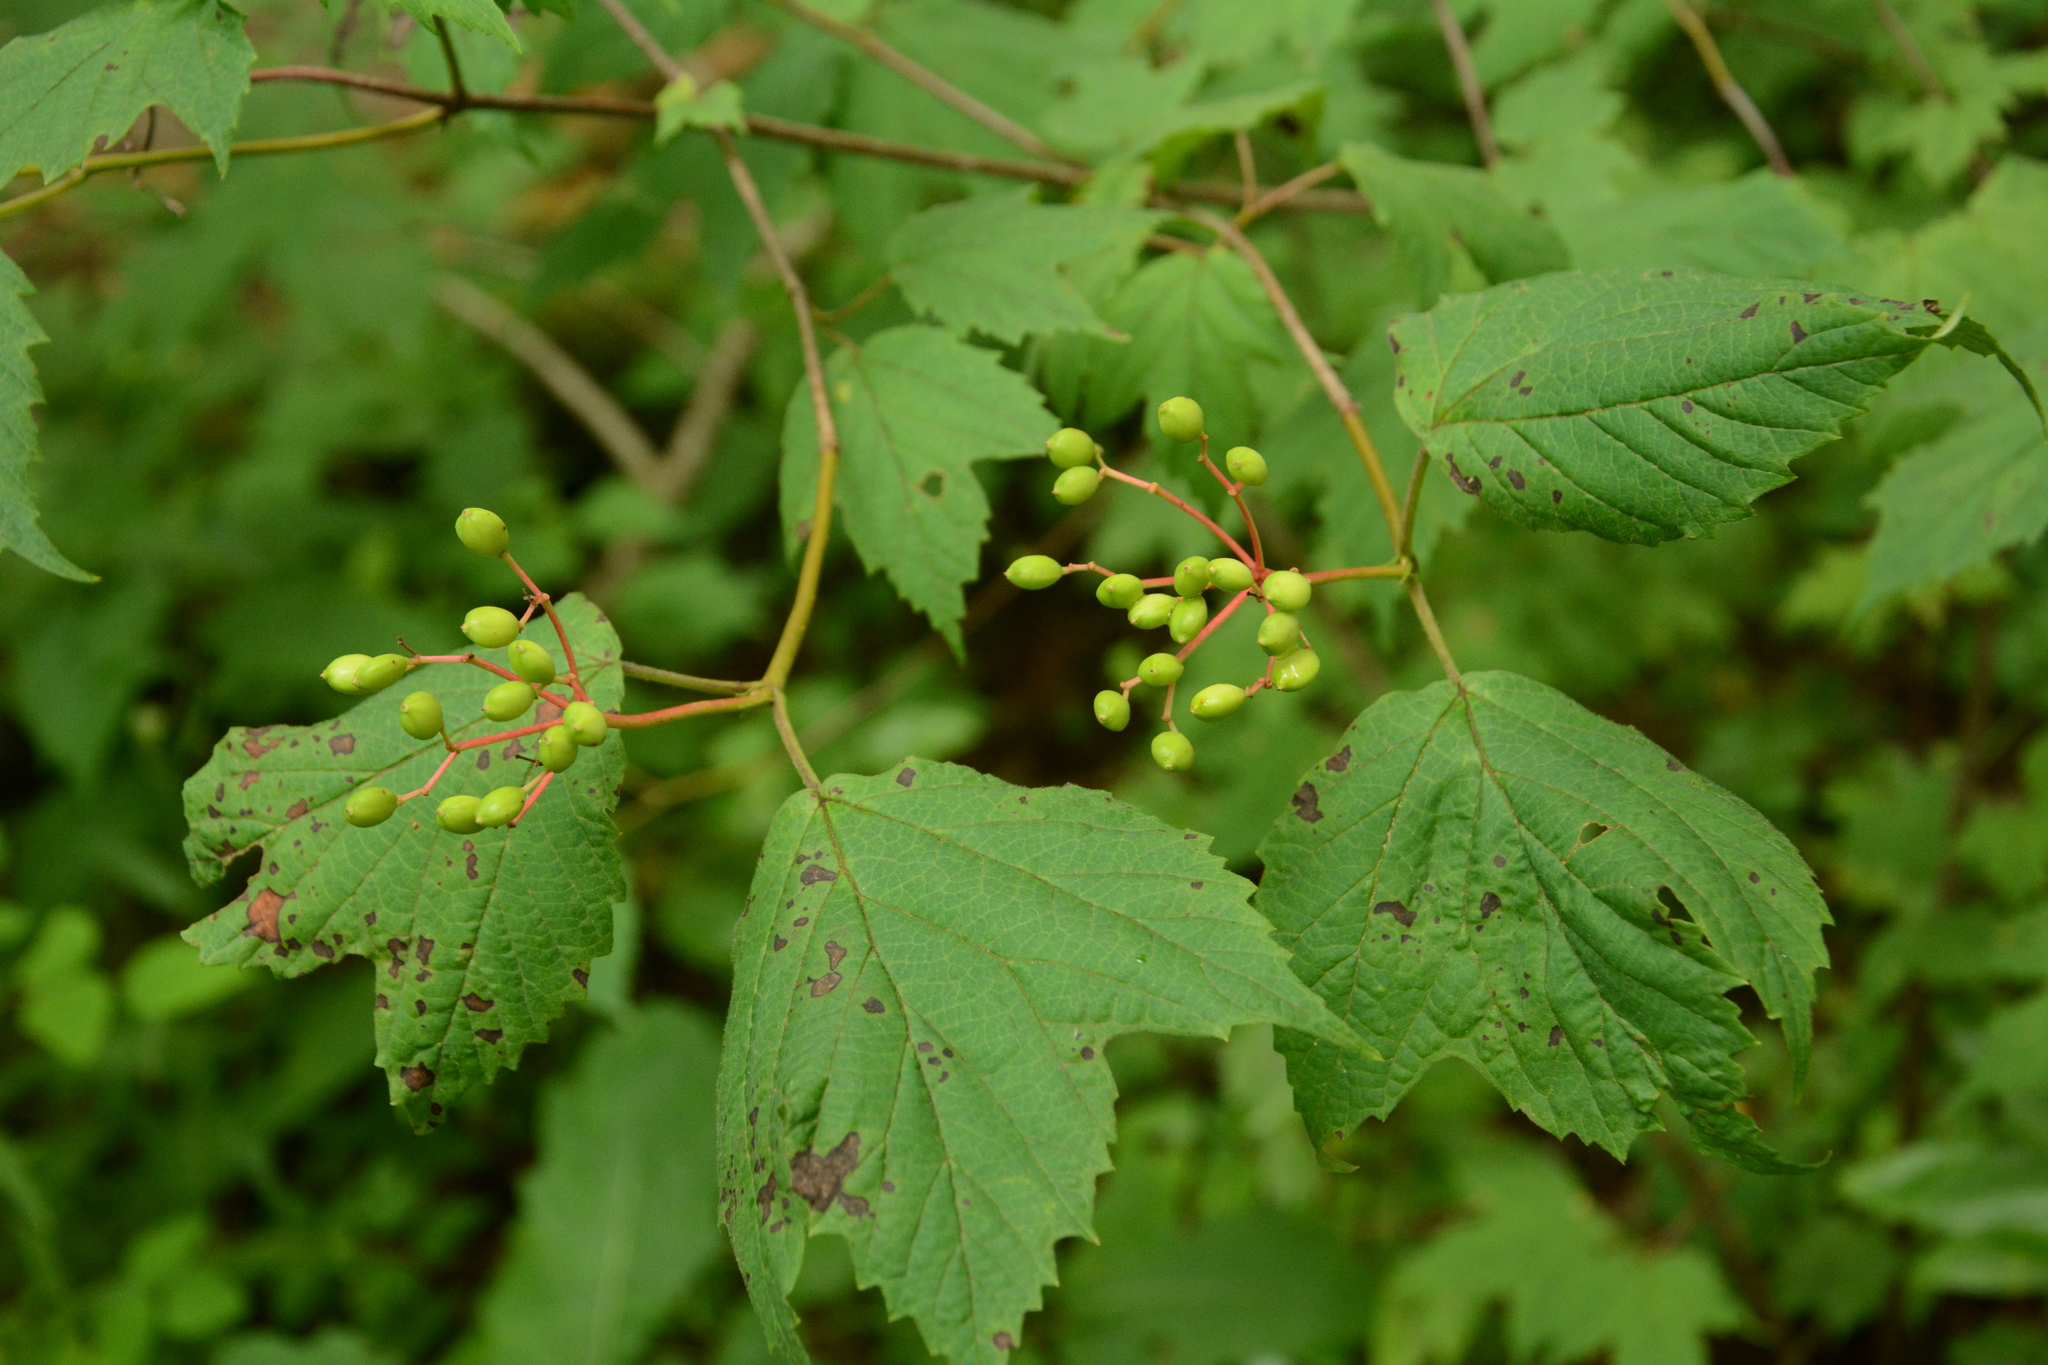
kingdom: Plantae
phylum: Tracheophyta
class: Magnoliopsida
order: Dipsacales
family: Viburnaceae
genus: Viburnum
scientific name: Viburnum acerifolium
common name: Dockmackie
